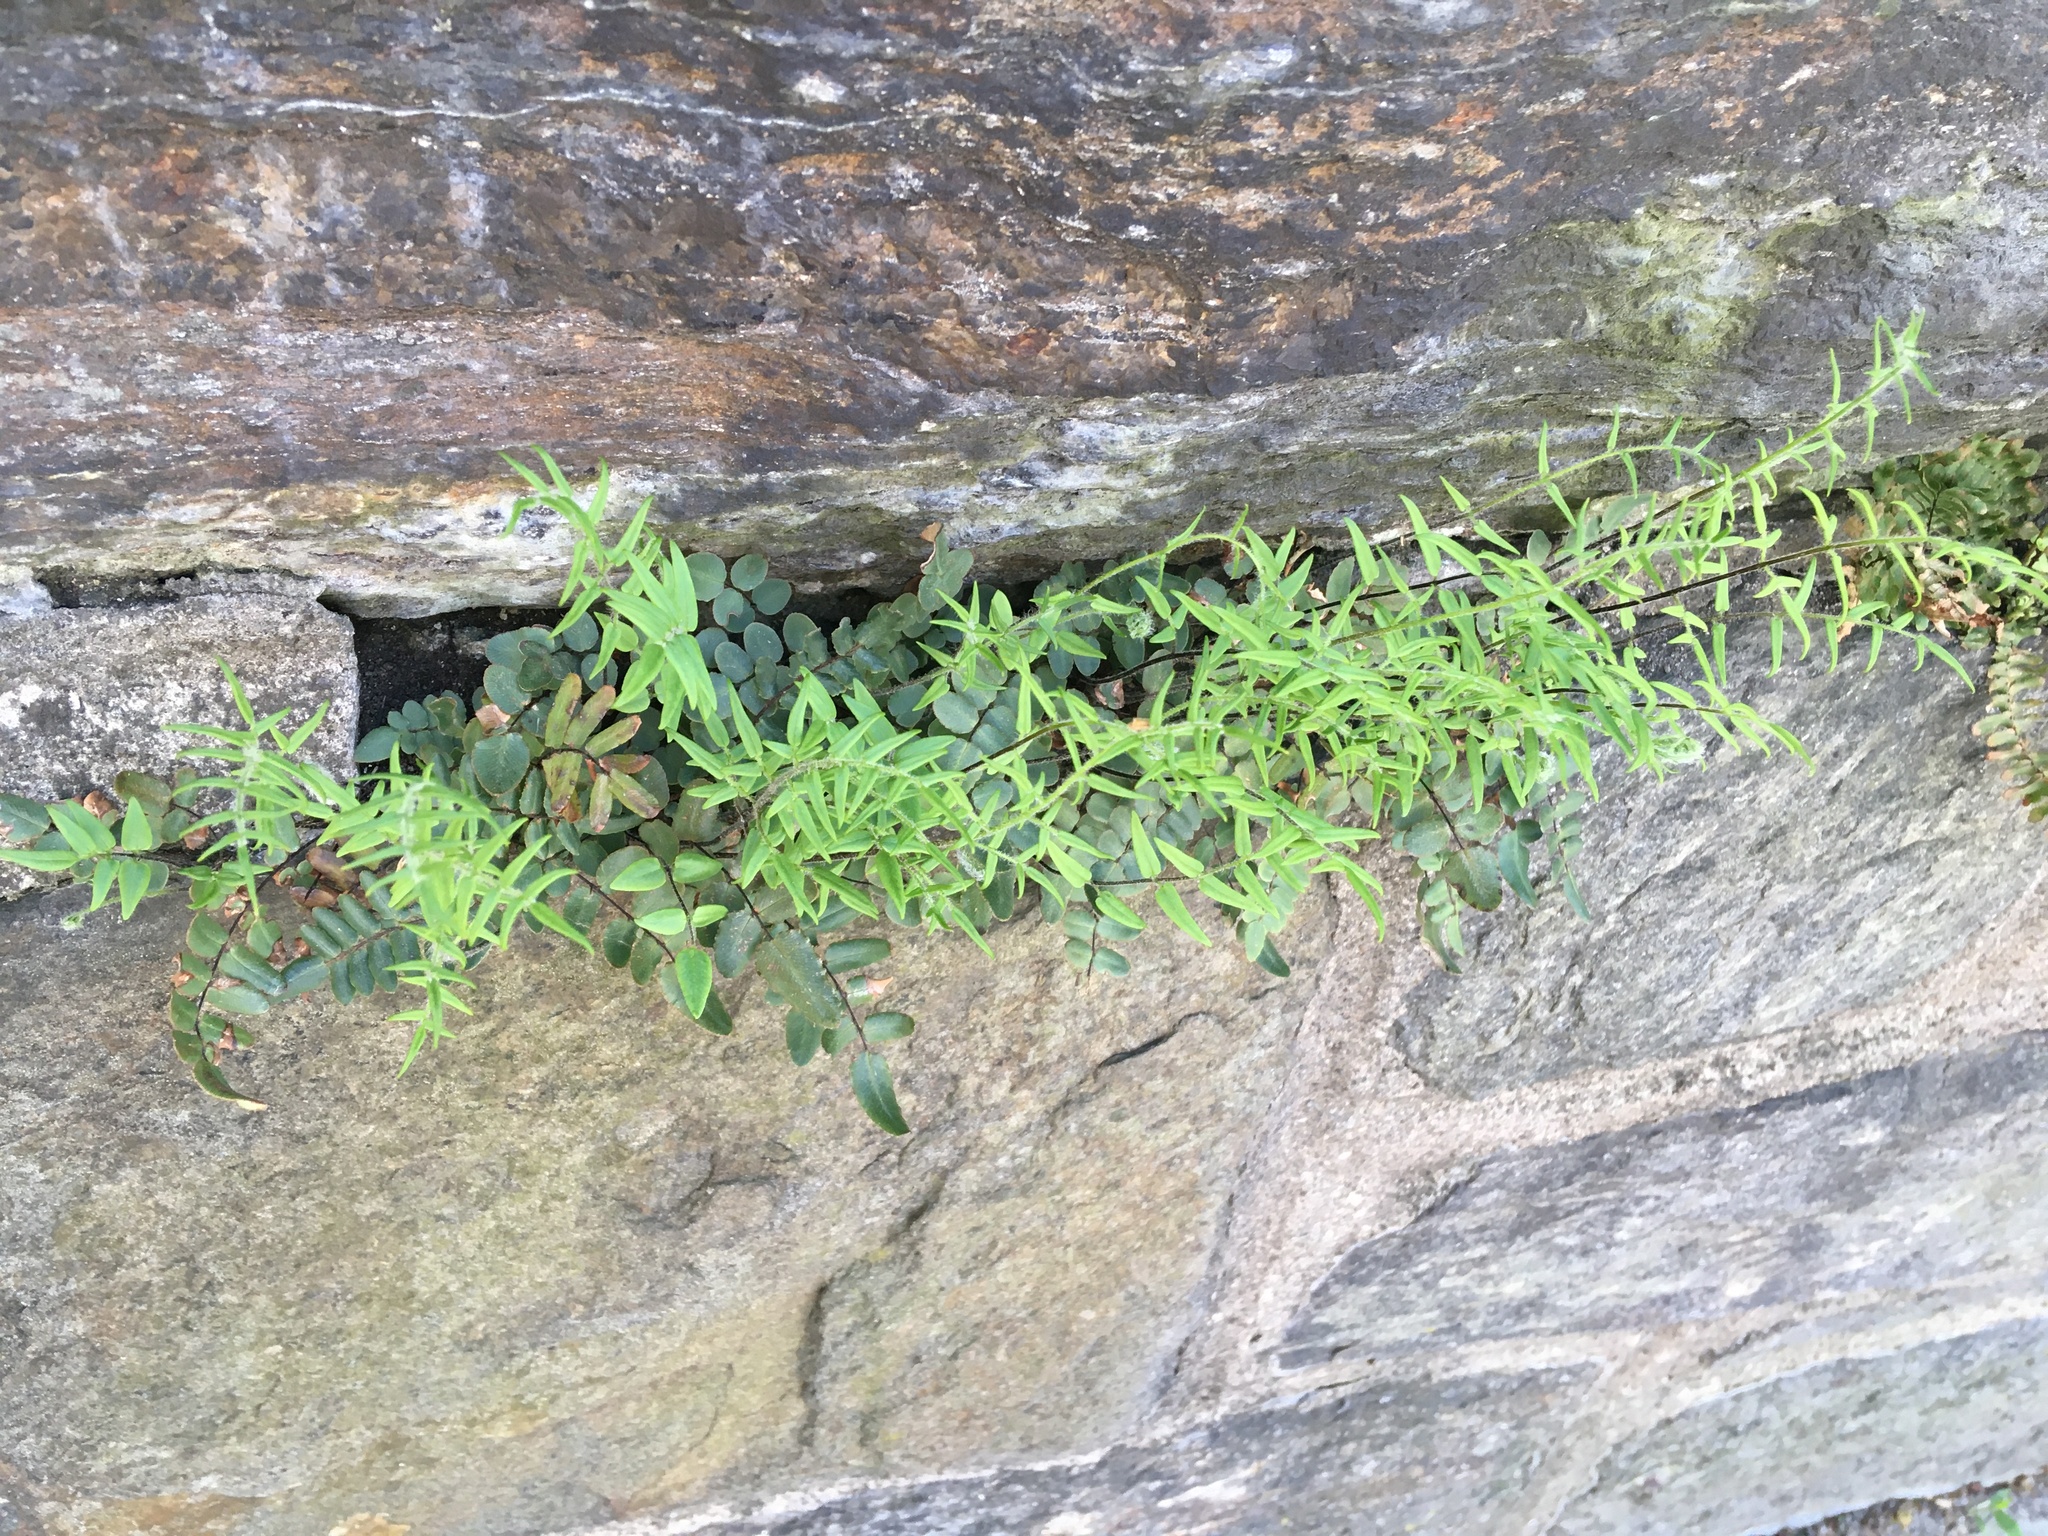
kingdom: Plantae
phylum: Tracheophyta
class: Polypodiopsida
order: Polypodiales
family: Pteridaceae
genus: Pellaea
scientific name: Pellaea atropurpurea
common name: Hairy cliffbrake
